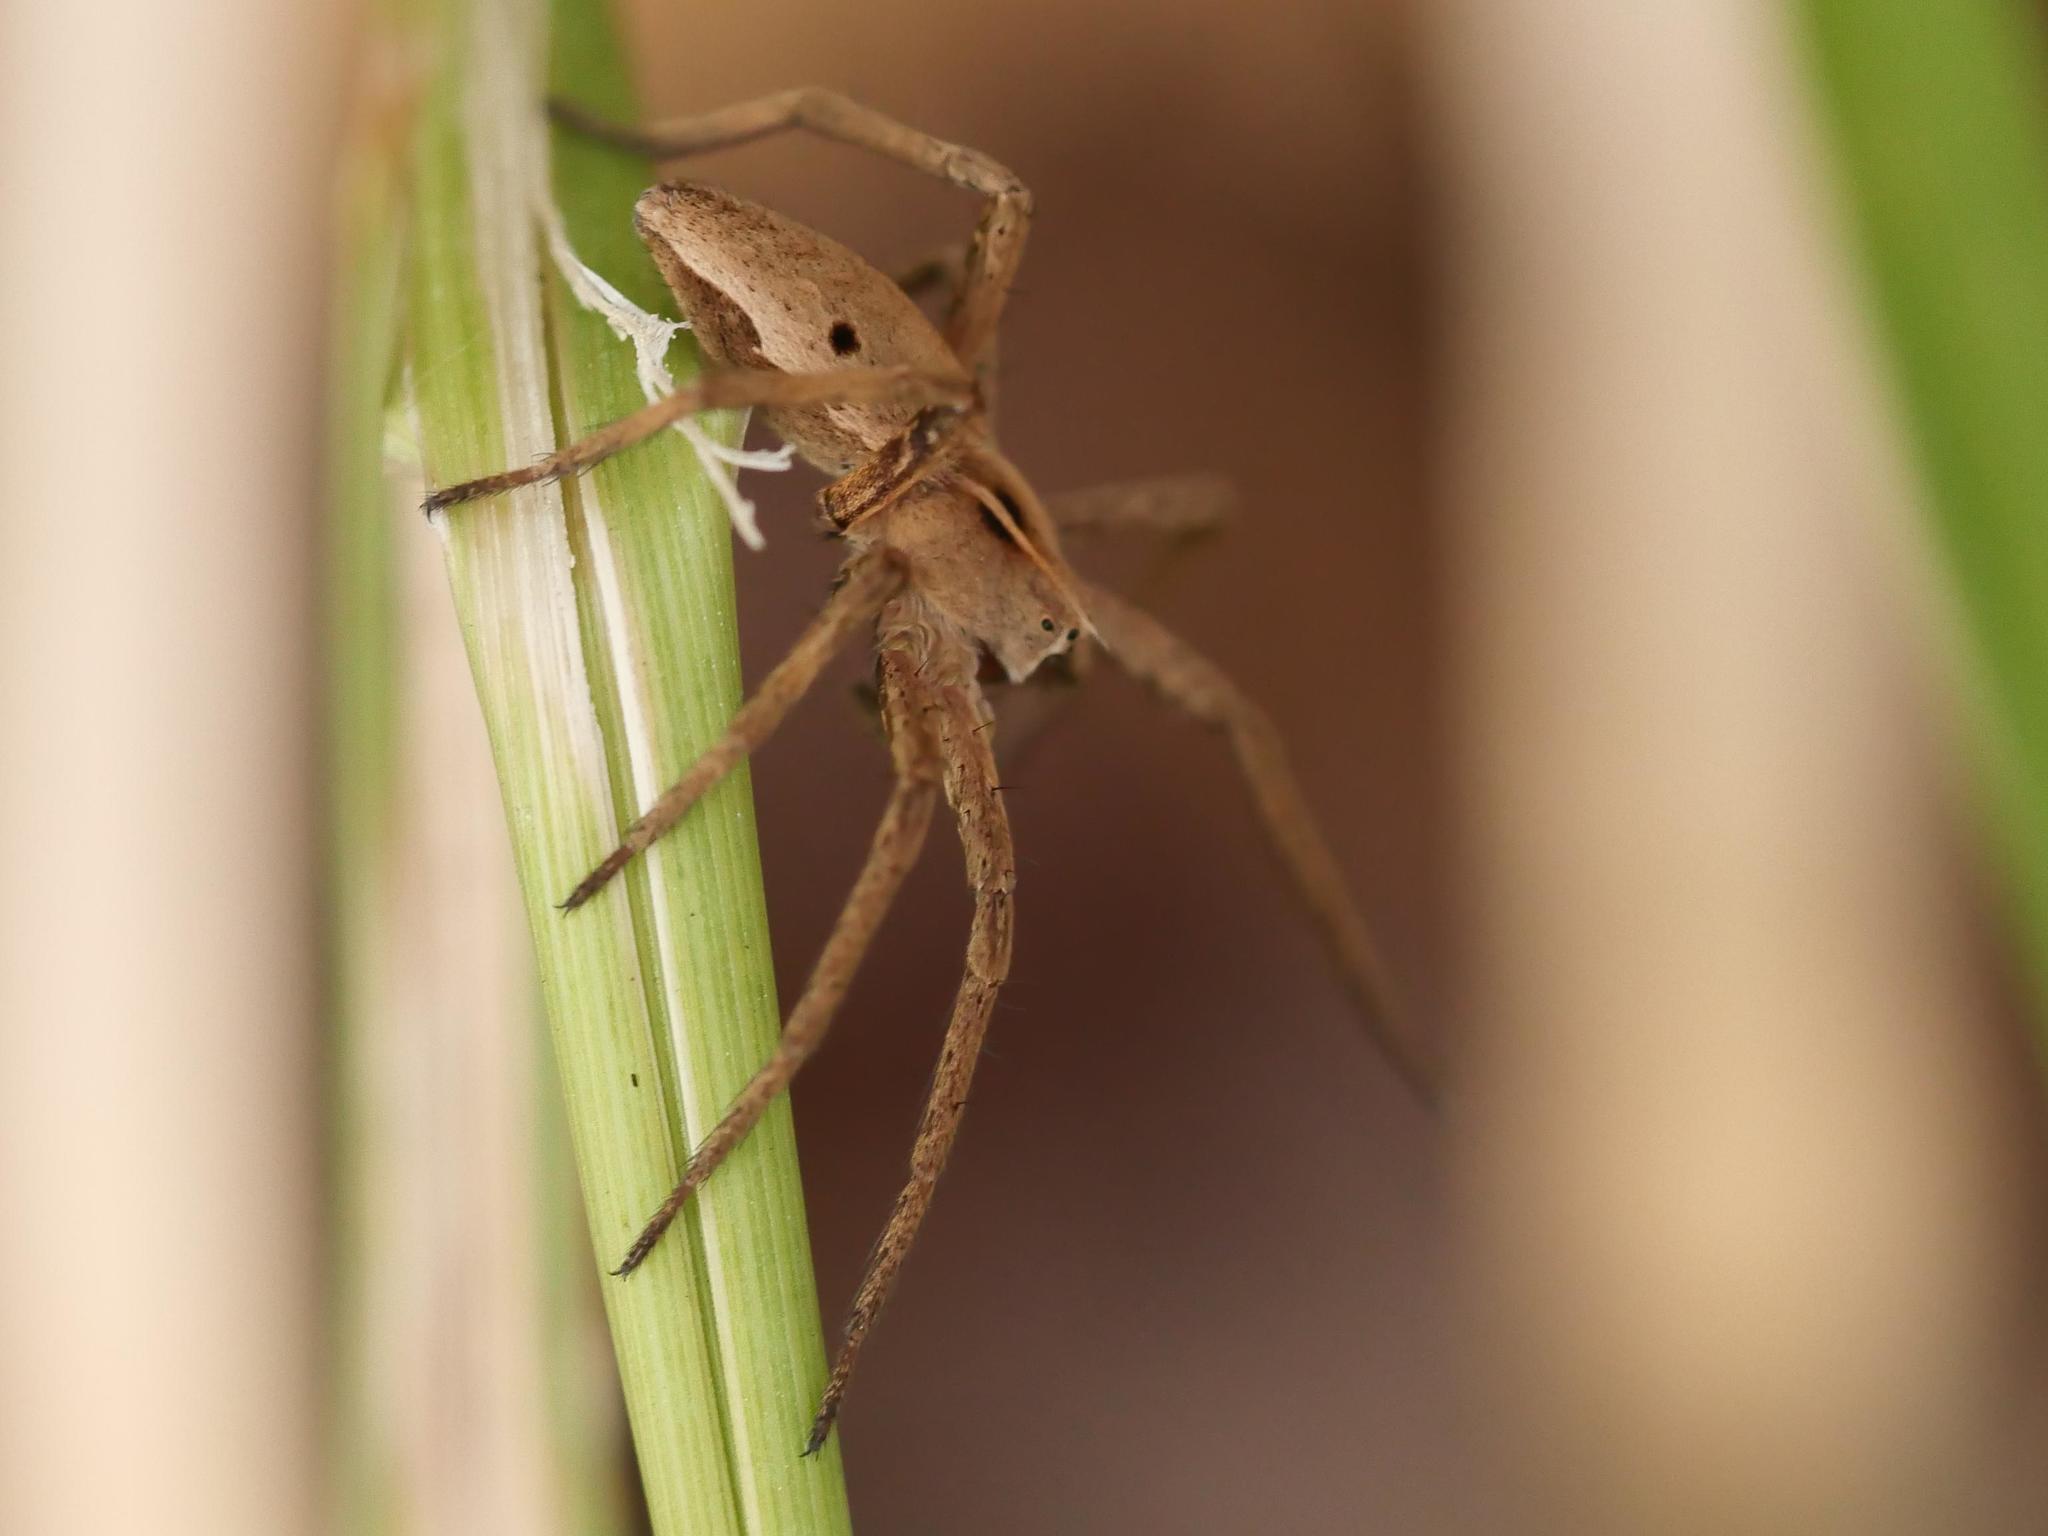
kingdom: Animalia
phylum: Arthropoda
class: Arachnida
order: Araneae
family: Pisauridae
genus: Pisaura
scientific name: Pisaura mirabilis
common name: Tent spider
